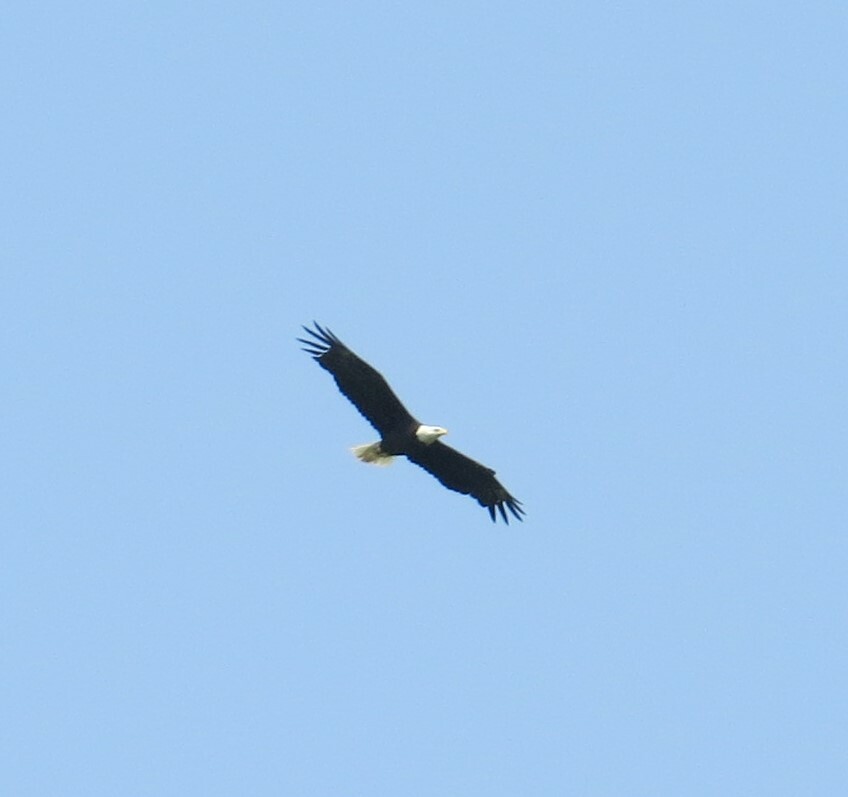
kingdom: Animalia
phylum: Chordata
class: Aves
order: Accipitriformes
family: Accipitridae
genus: Haliaeetus
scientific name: Haliaeetus leucocephalus
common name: Bald eagle
